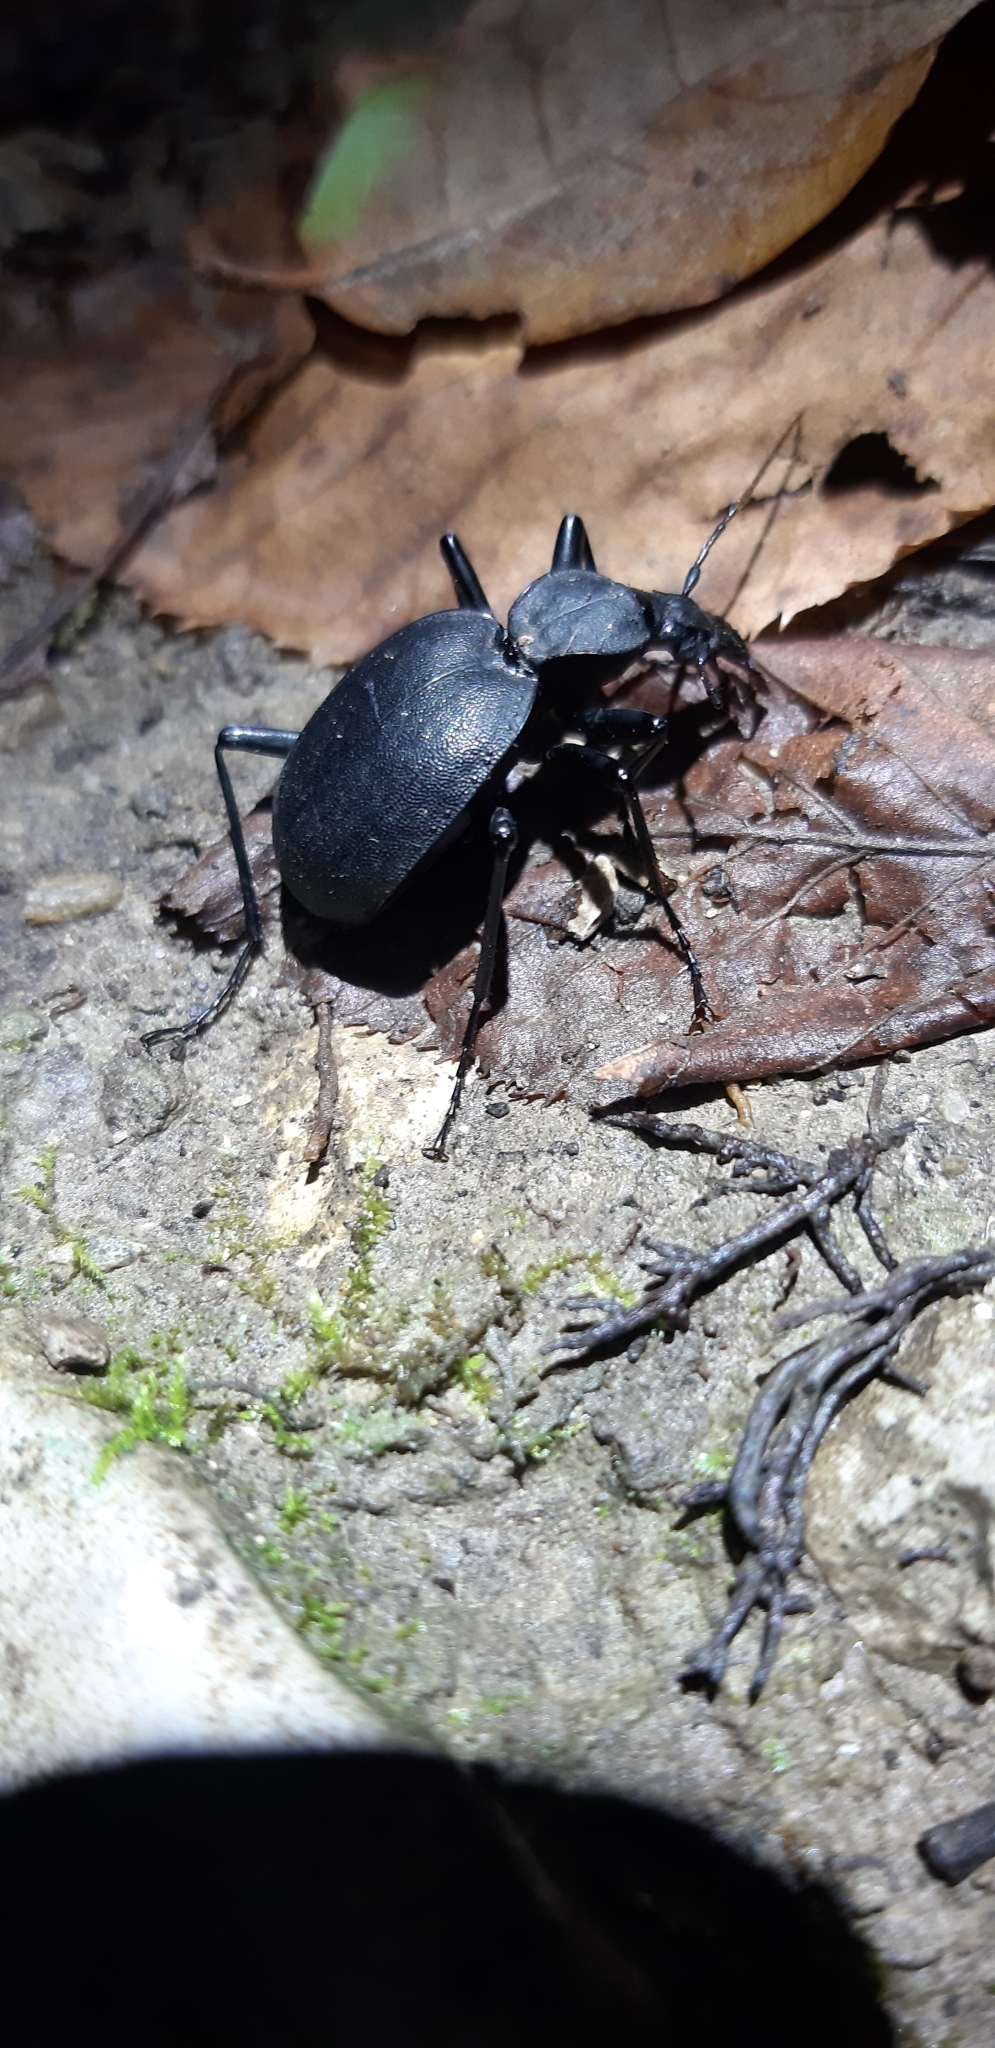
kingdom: Animalia
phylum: Arthropoda
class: Insecta
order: Coleoptera
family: Carabidae
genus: Cychrus
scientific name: Cychrus italicus
